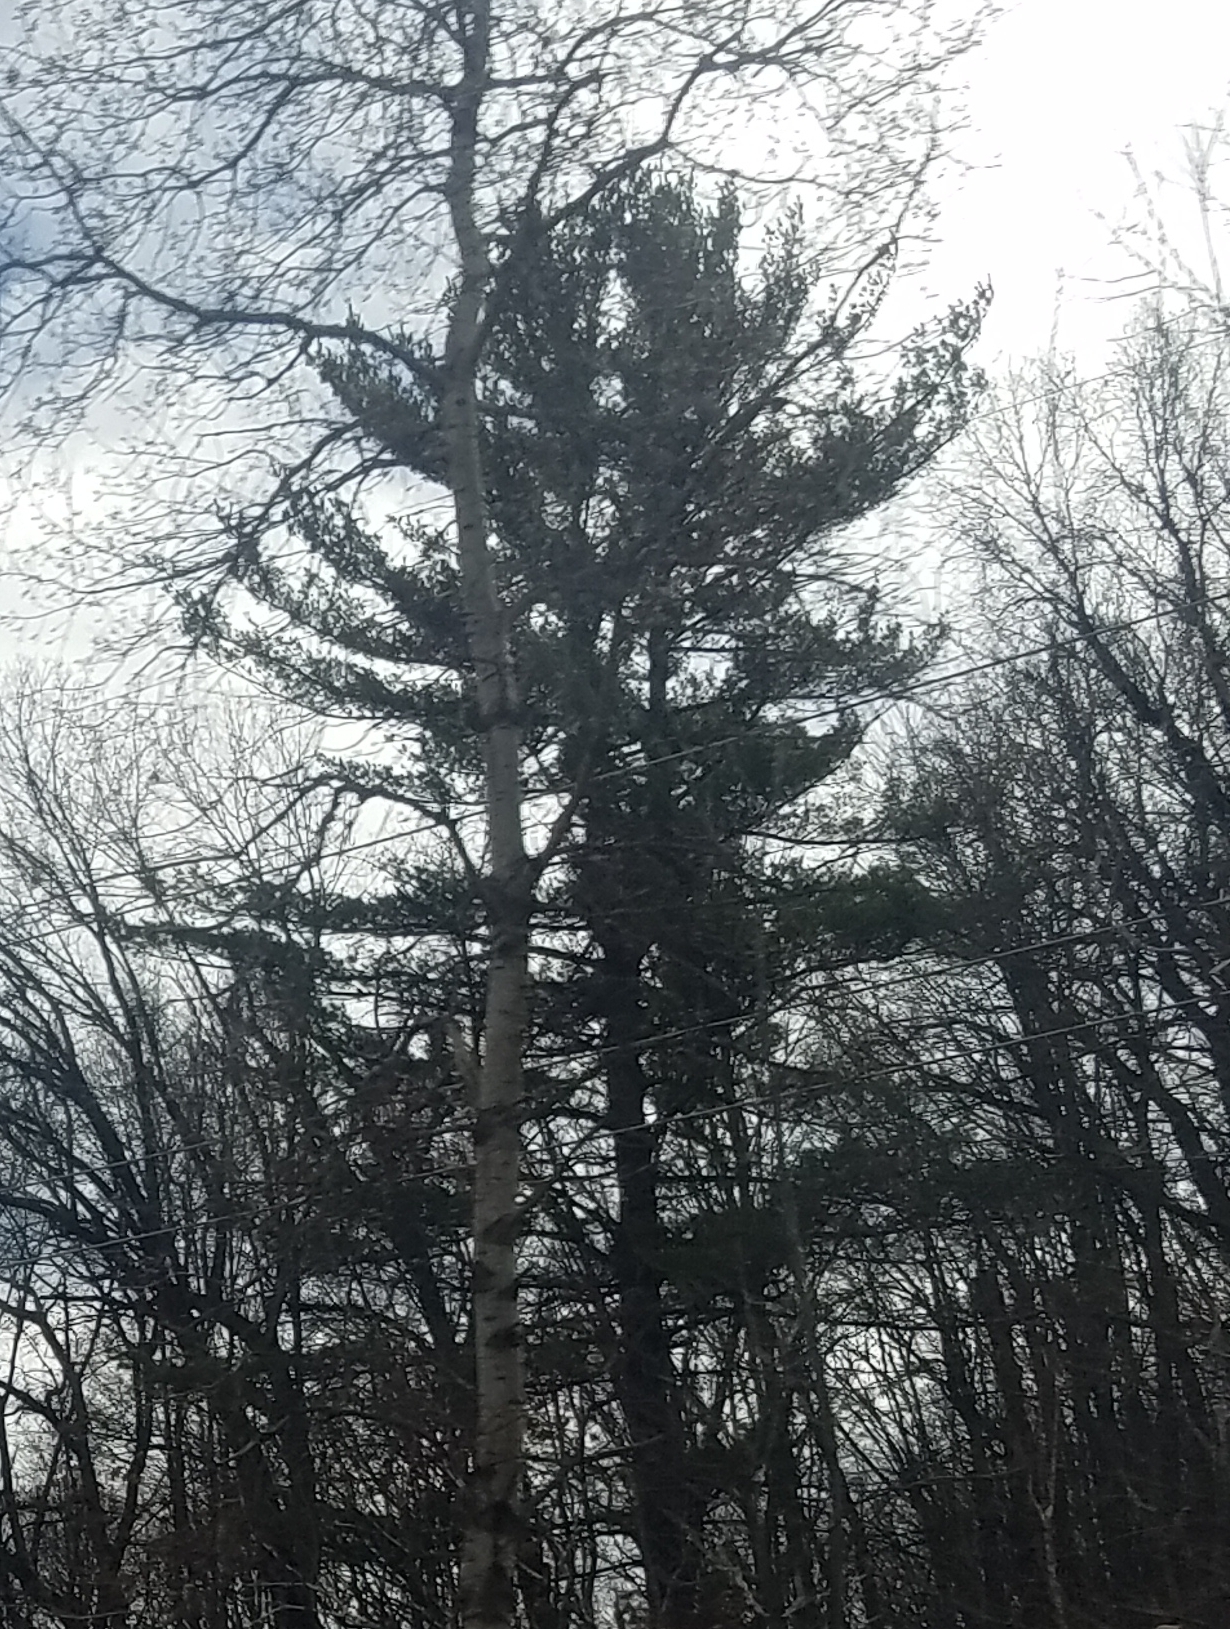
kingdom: Plantae
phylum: Tracheophyta
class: Pinopsida
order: Pinales
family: Pinaceae
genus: Pinus
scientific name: Pinus strobus
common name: Weymouth pine
